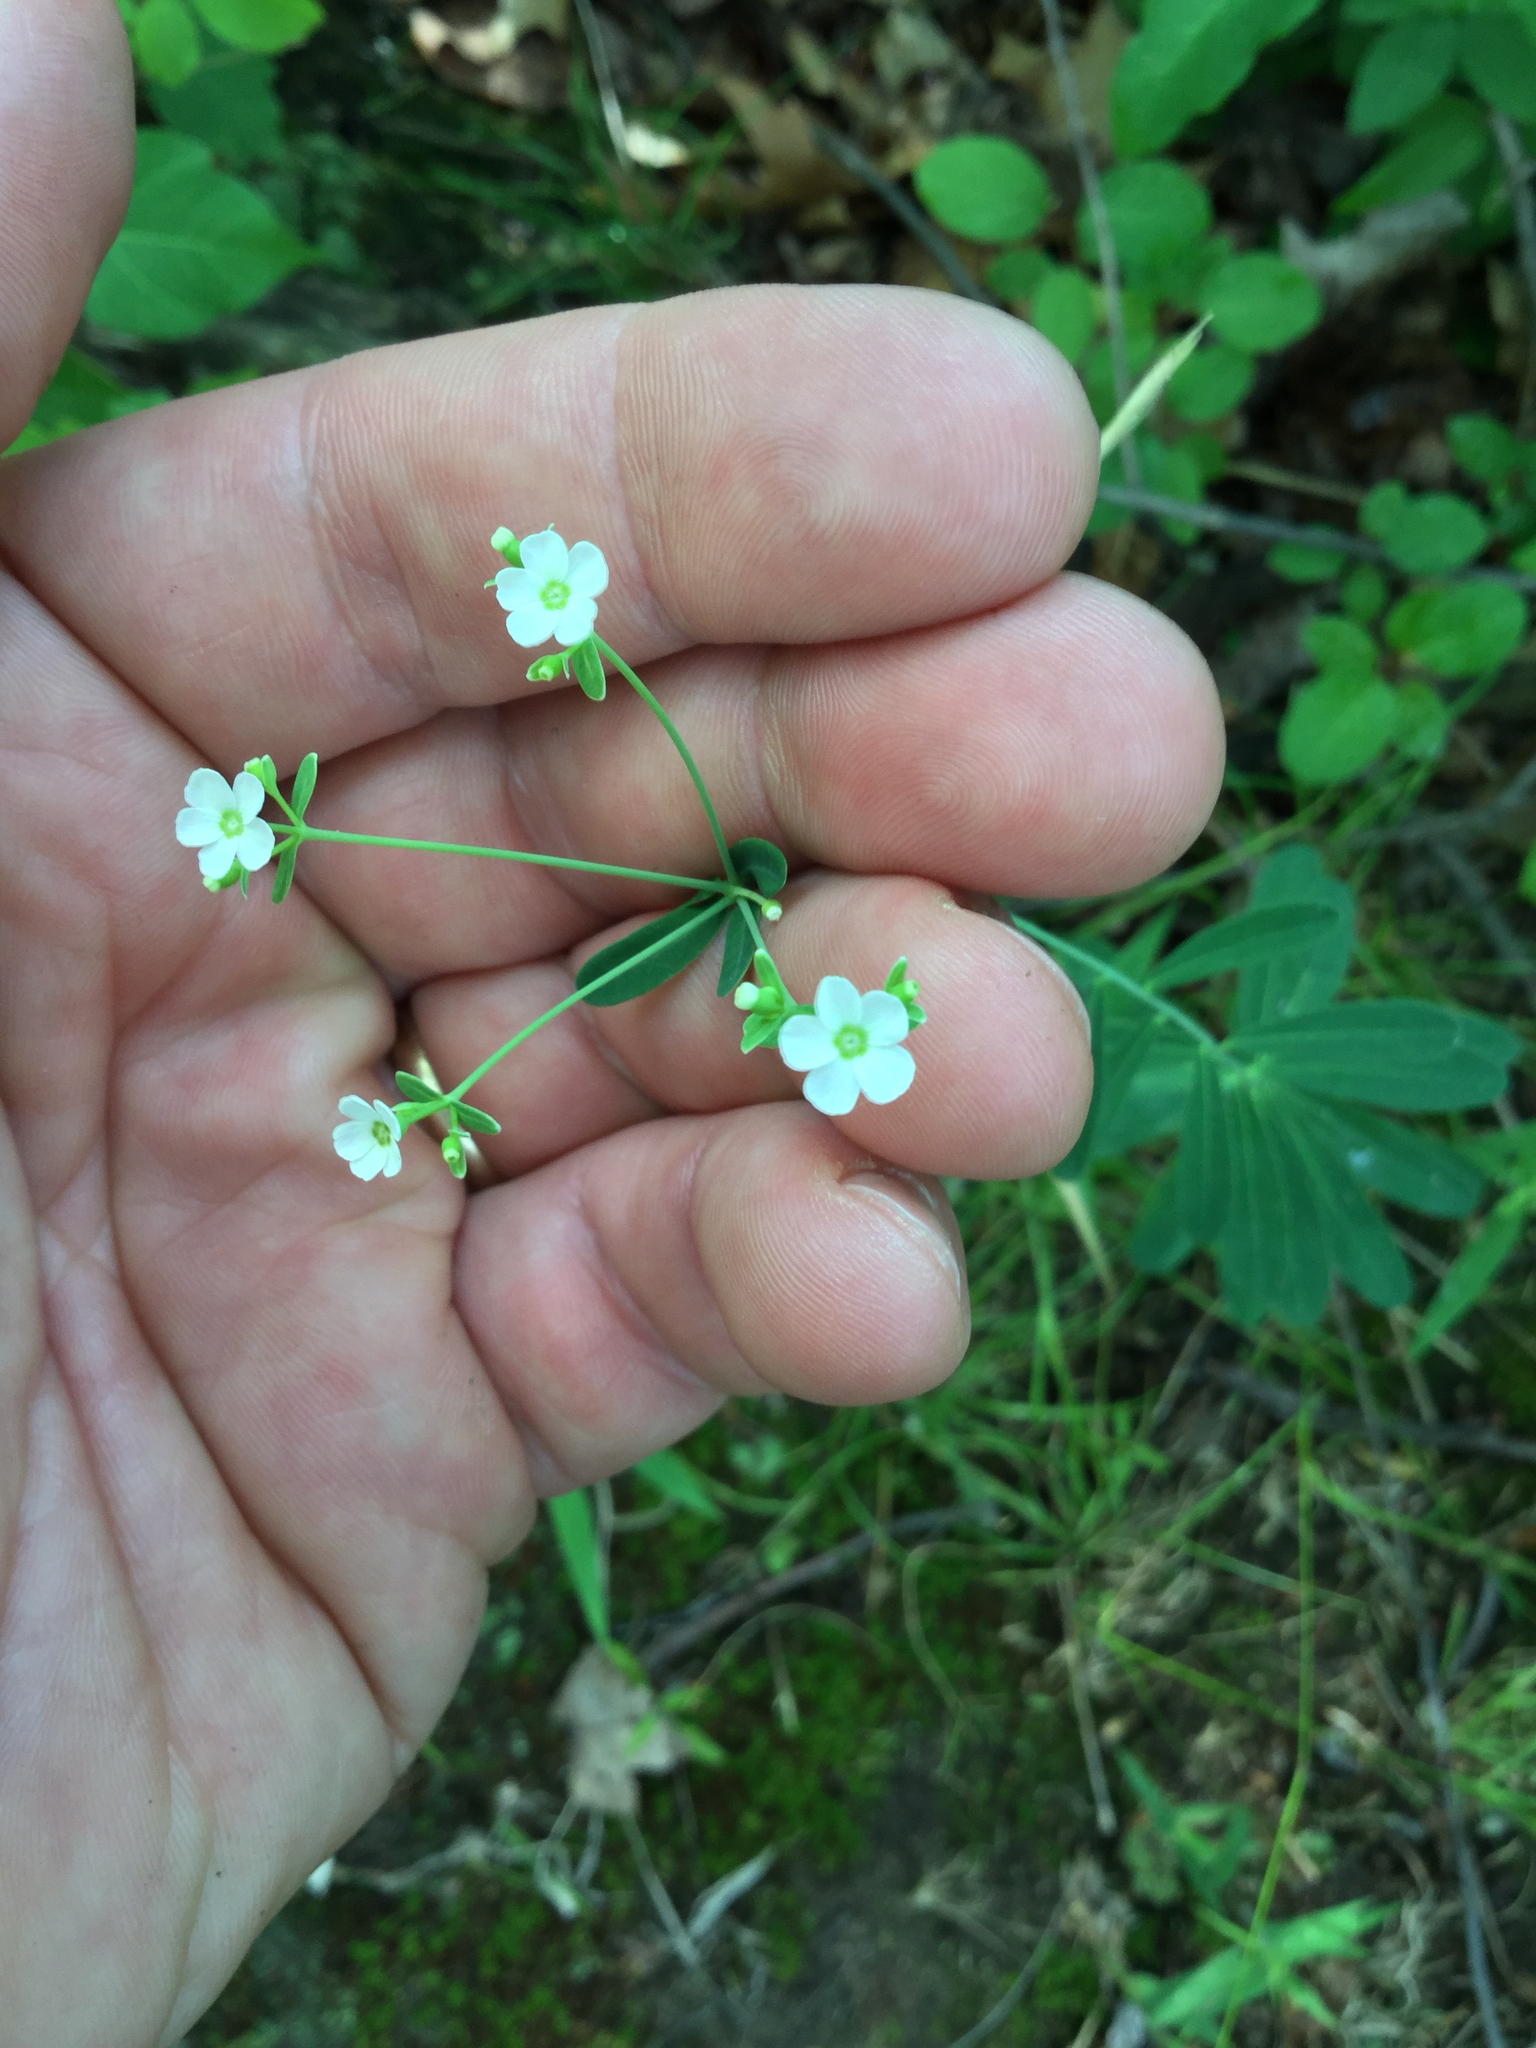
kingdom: Plantae
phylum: Tracheophyta
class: Magnoliopsida
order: Malpighiales
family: Euphorbiaceae
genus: Euphorbia
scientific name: Euphorbia corollata
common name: Flowering spurge
